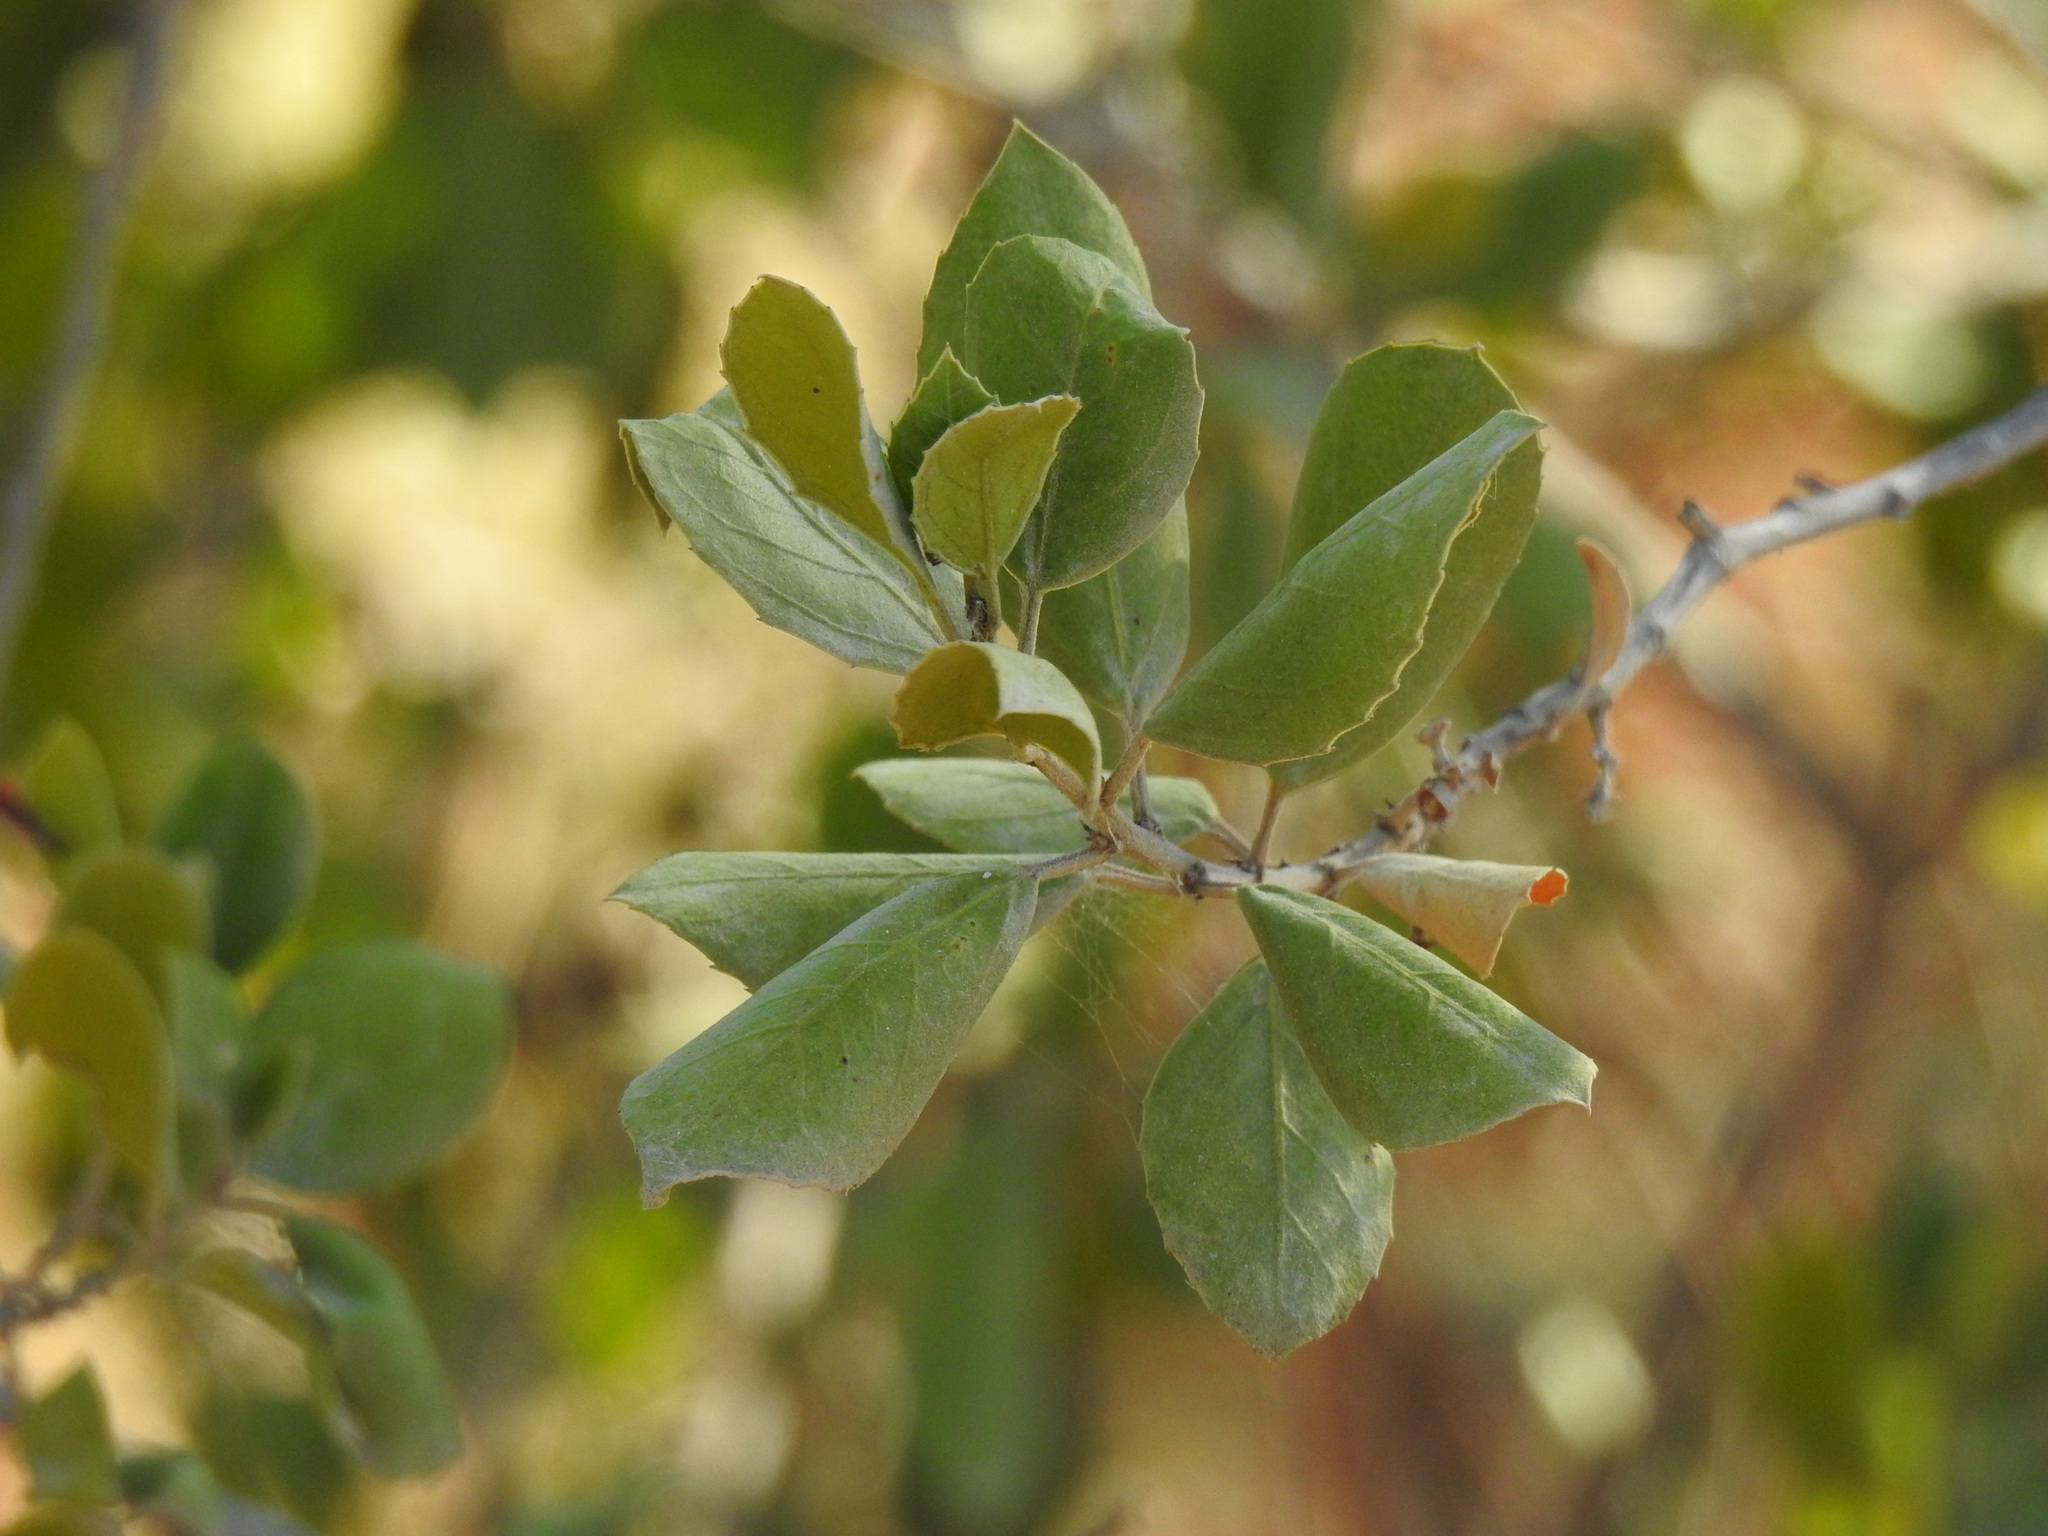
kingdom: Plantae
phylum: Tracheophyta
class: Magnoliopsida
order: Rosales
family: Rhamnaceae
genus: Rhamnus
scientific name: Rhamnus alaternus
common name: Mediterranean buckthorn
